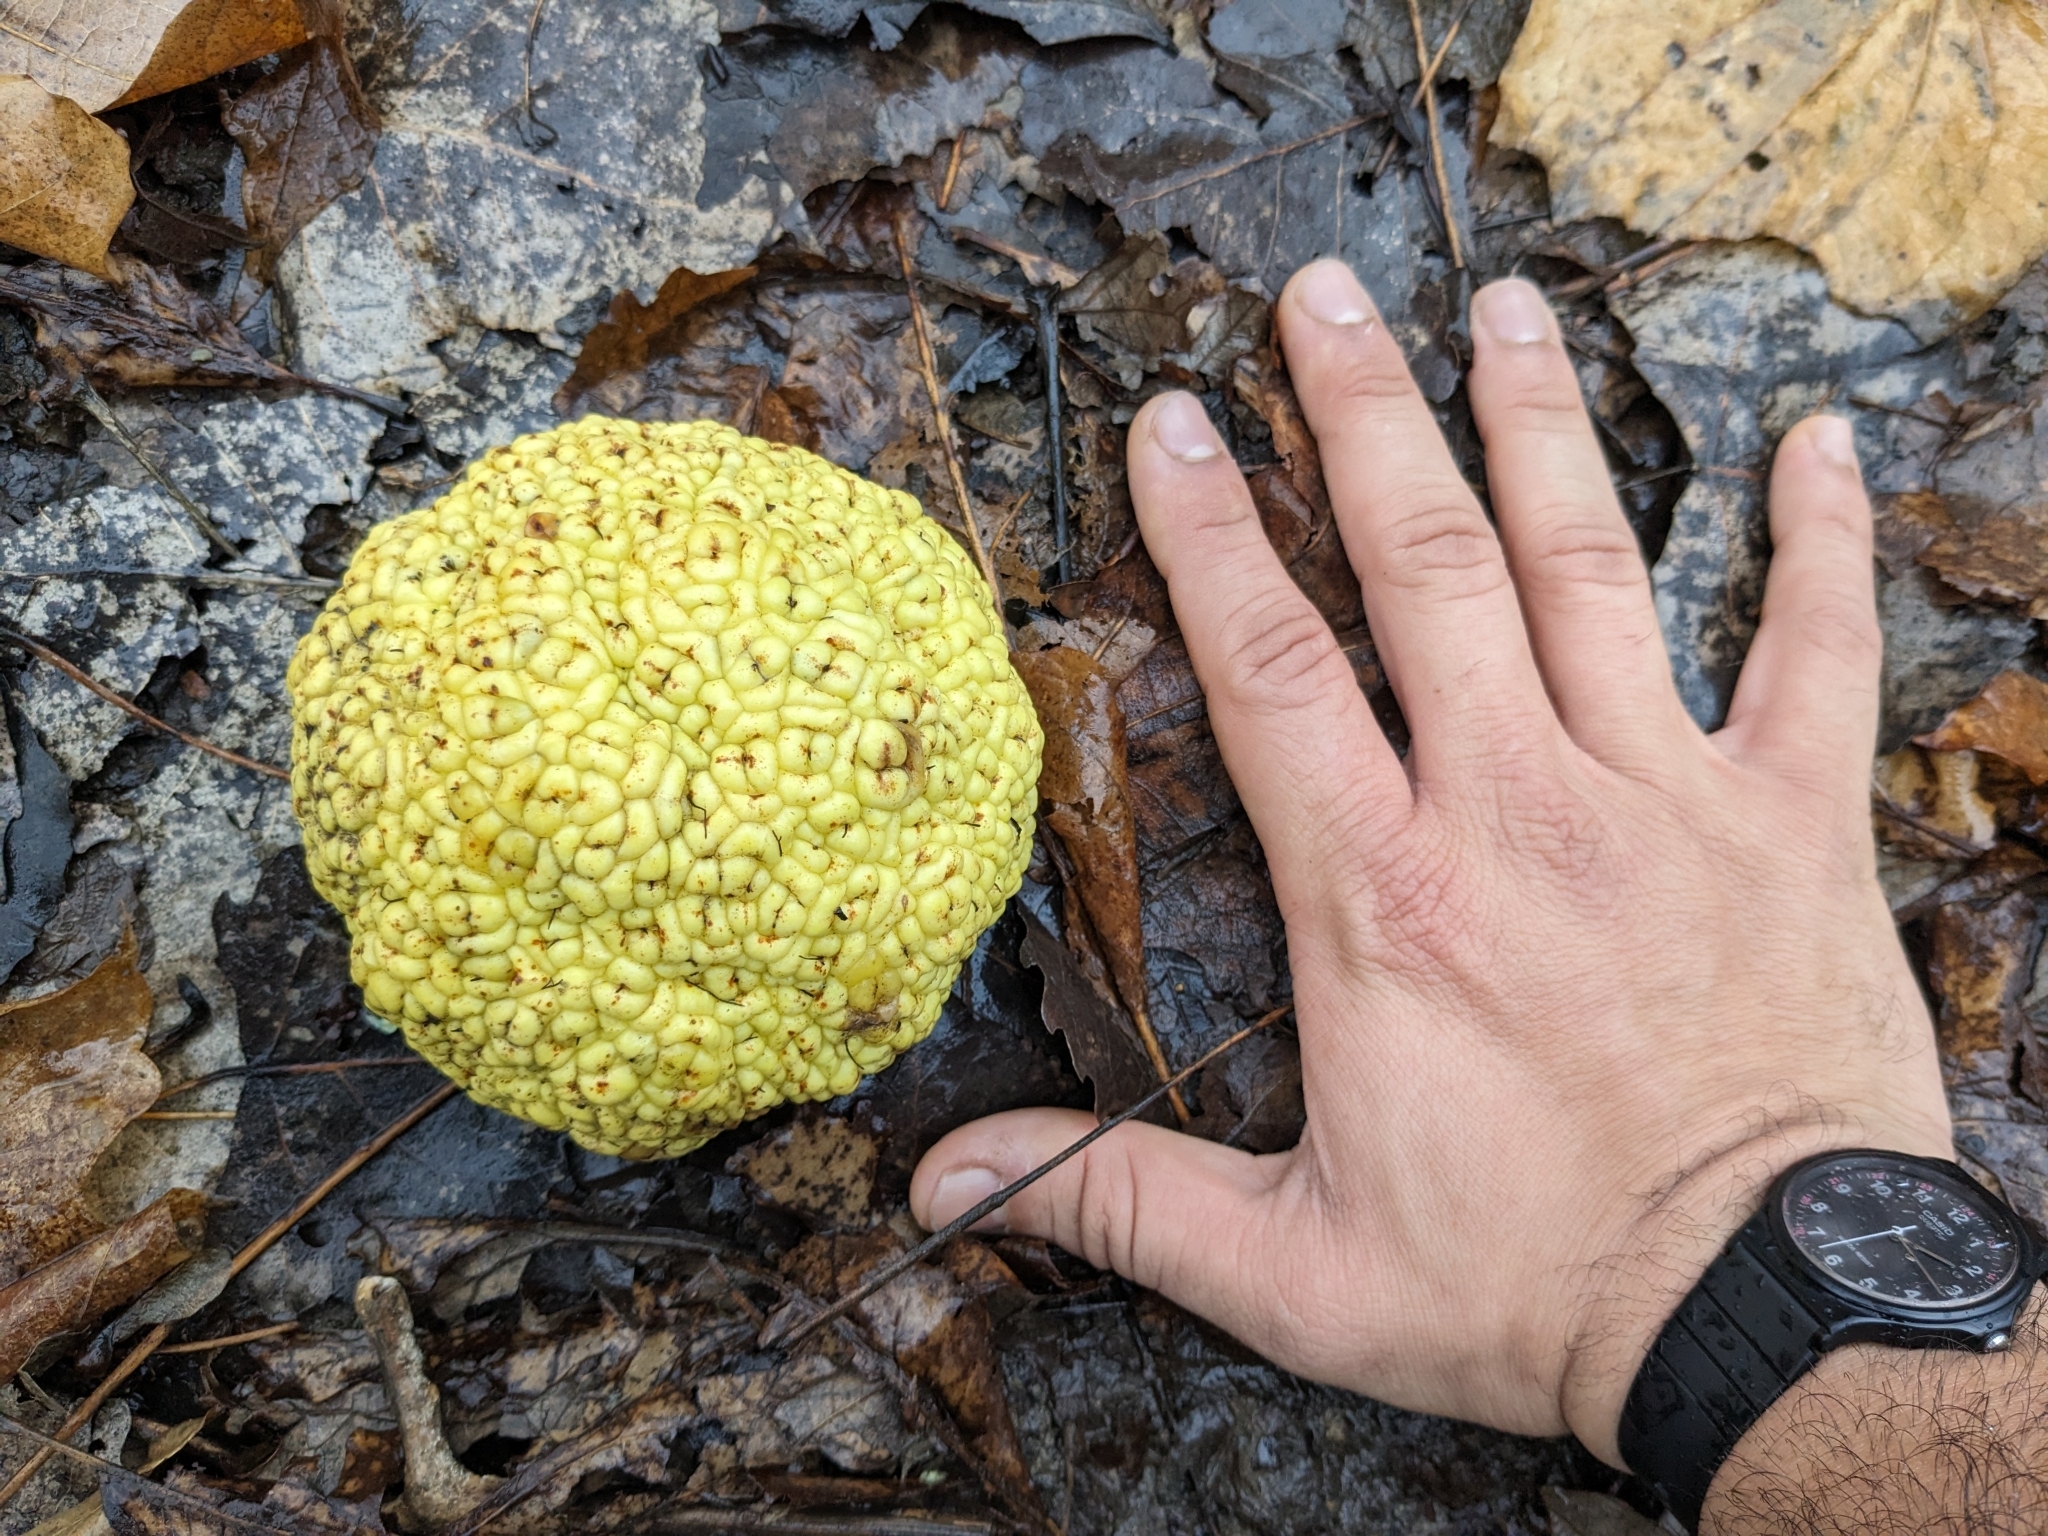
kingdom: Plantae
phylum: Tracheophyta
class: Magnoliopsida
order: Rosales
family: Moraceae
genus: Maclura
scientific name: Maclura pomifera
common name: Osage-orange
